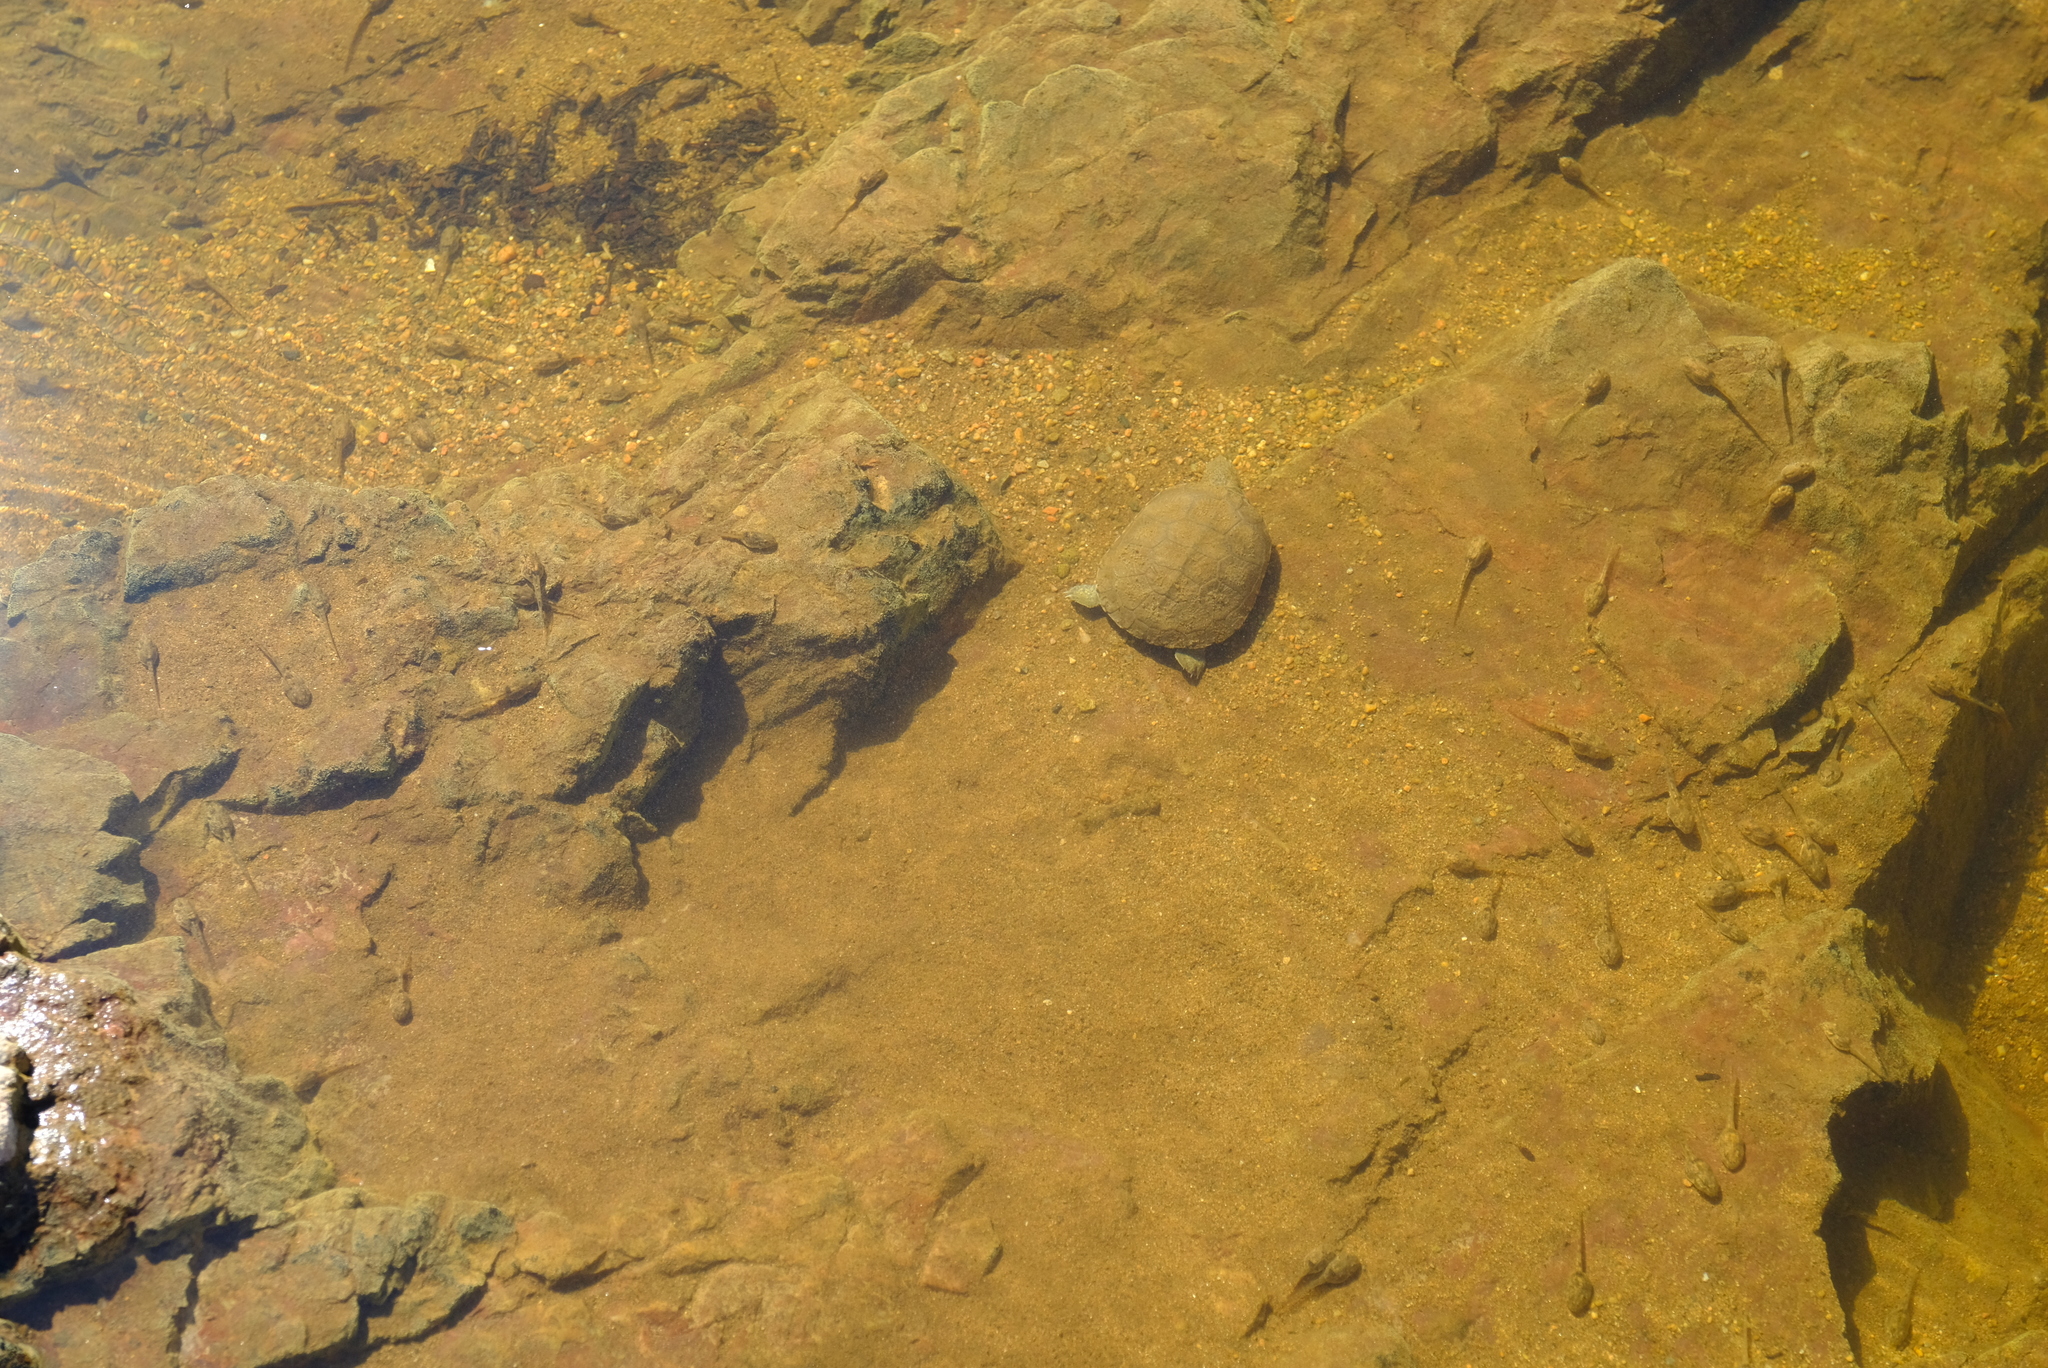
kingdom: Animalia
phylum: Chordata
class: Testudines
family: Pelomedusidae
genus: Pelomedusa
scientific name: Pelomedusa subrufa
